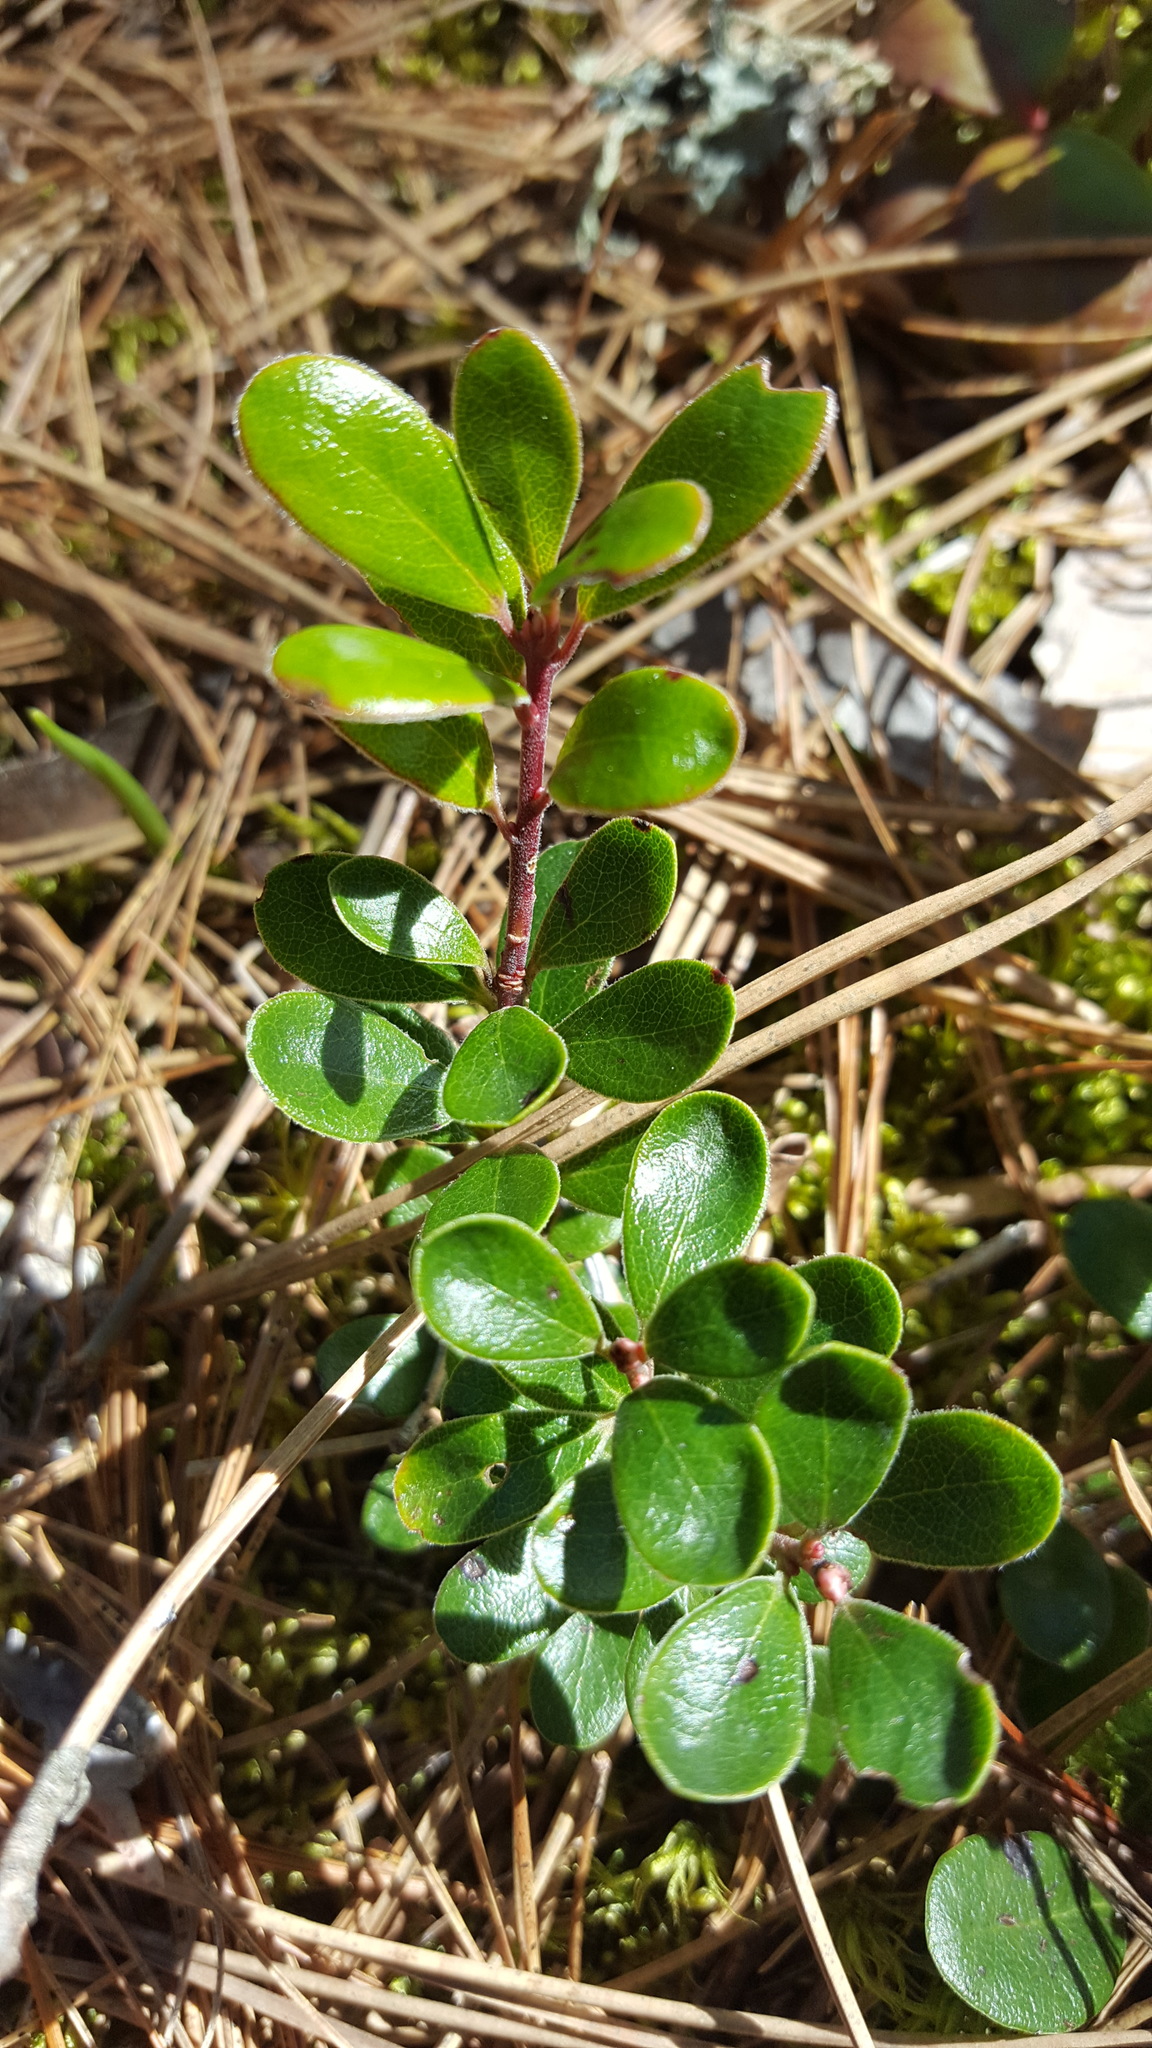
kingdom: Plantae
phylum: Tracheophyta
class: Magnoliopsida
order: Ericales
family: Ericaceae
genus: Arctostaphylos
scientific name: Arctostaphylos uva-ursi
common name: Bearberry
